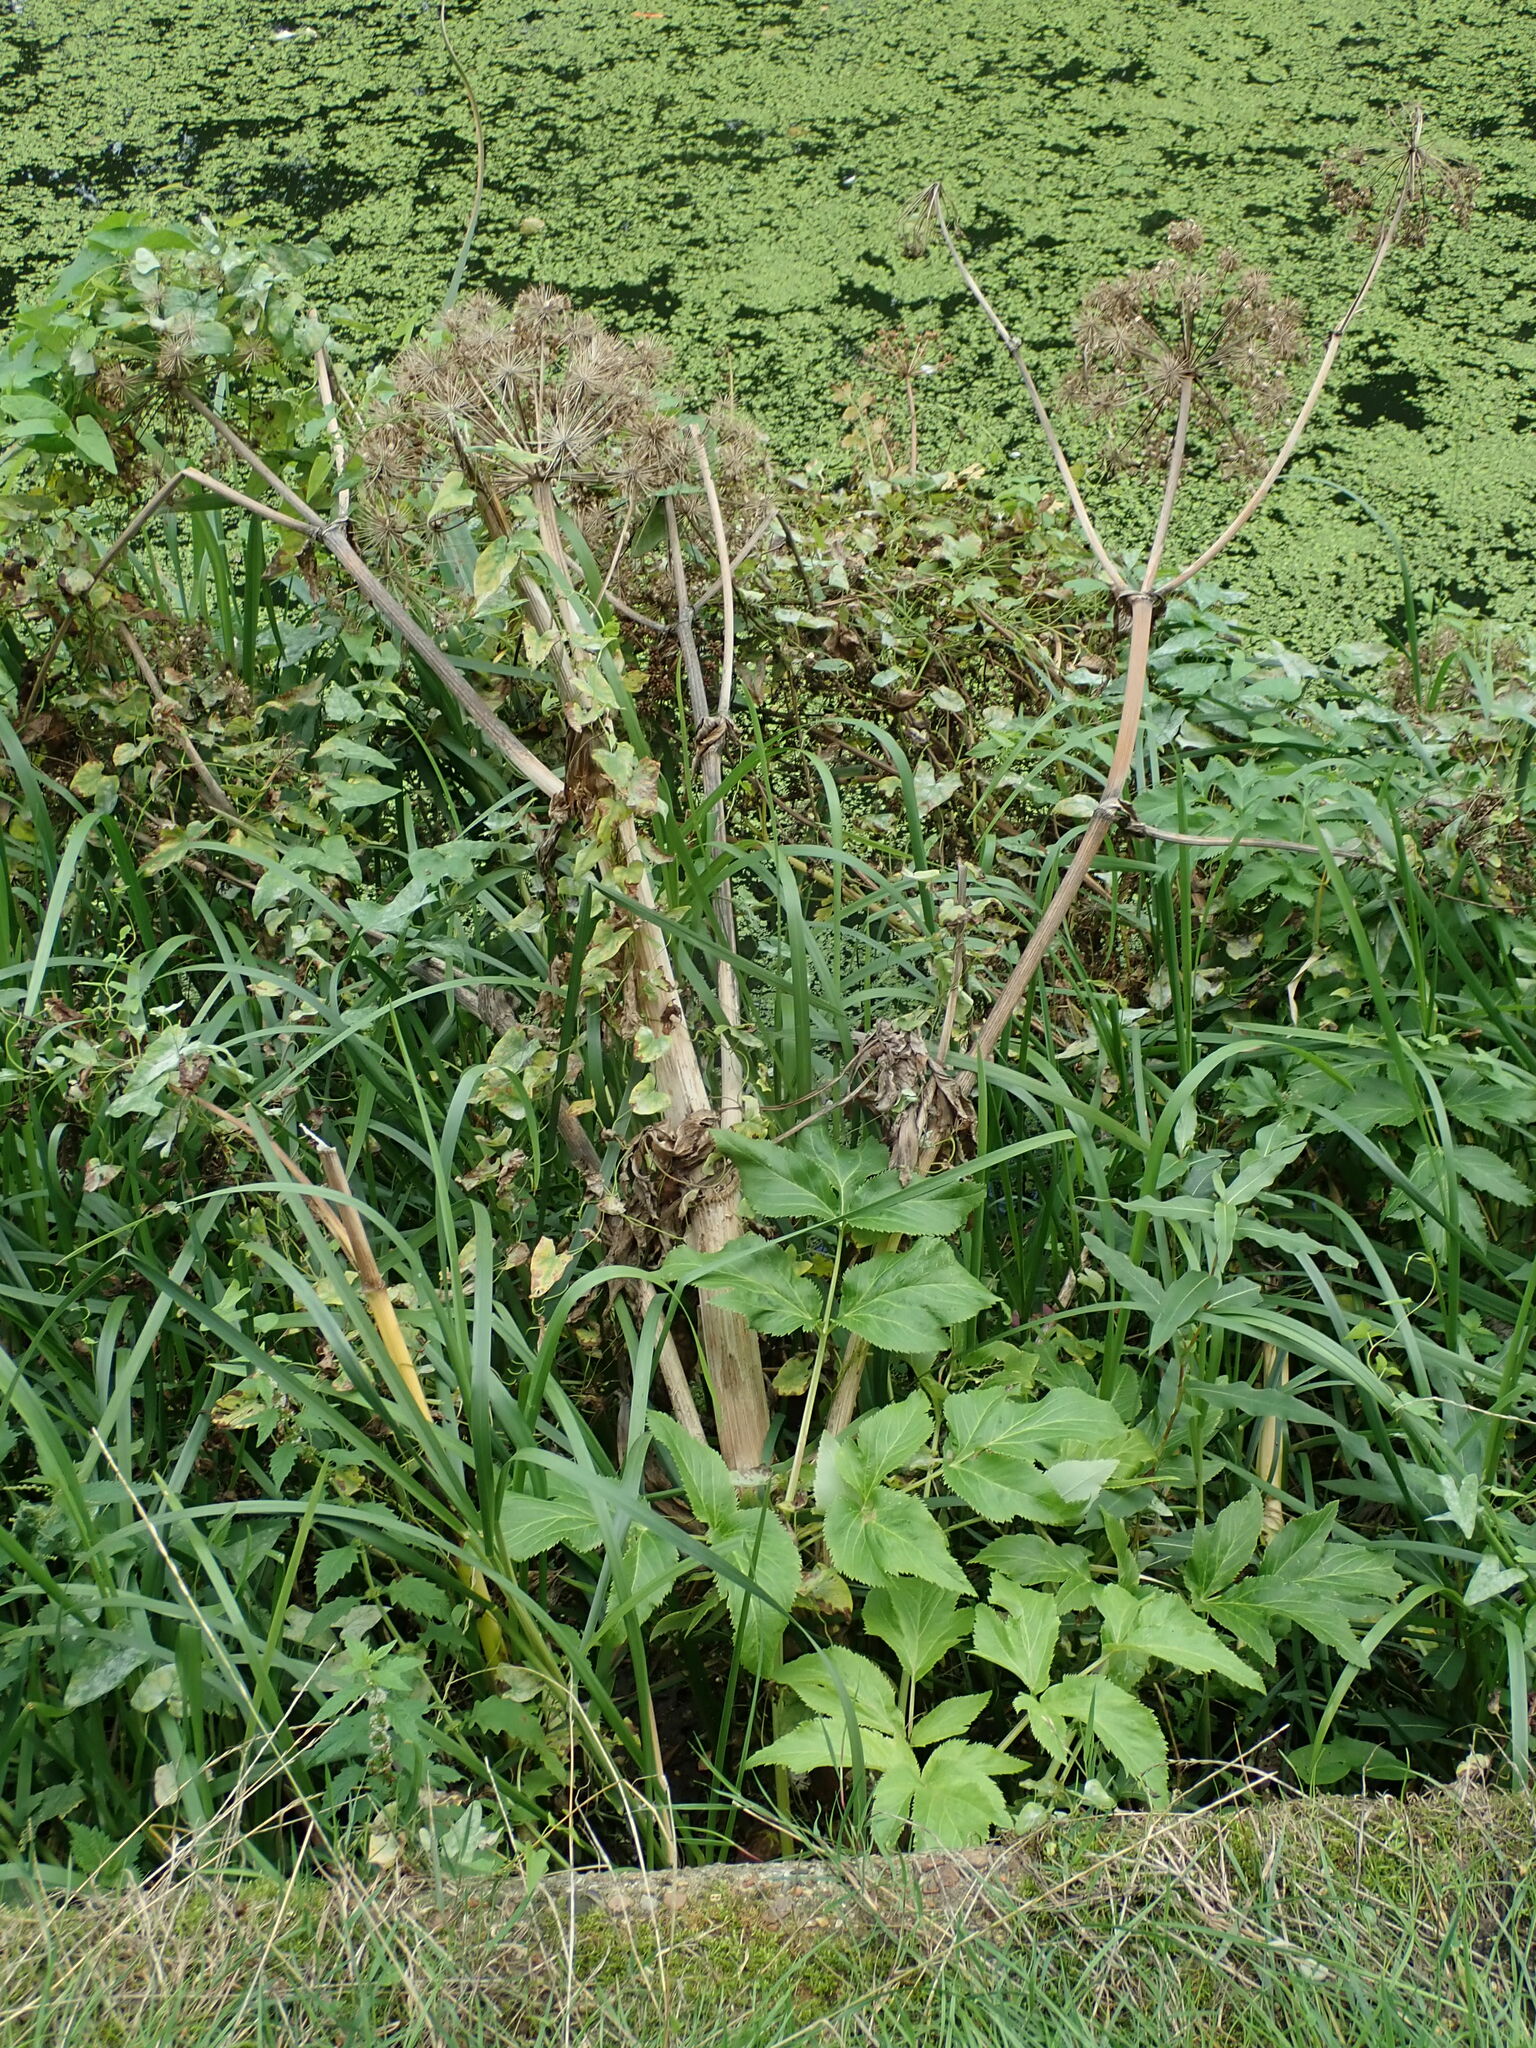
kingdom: Plantae
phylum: Tracheophyta
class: Magnoliopsida
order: Apiales
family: Apiaceae
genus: Angelica
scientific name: Angelica archangelica
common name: Garden angelica
